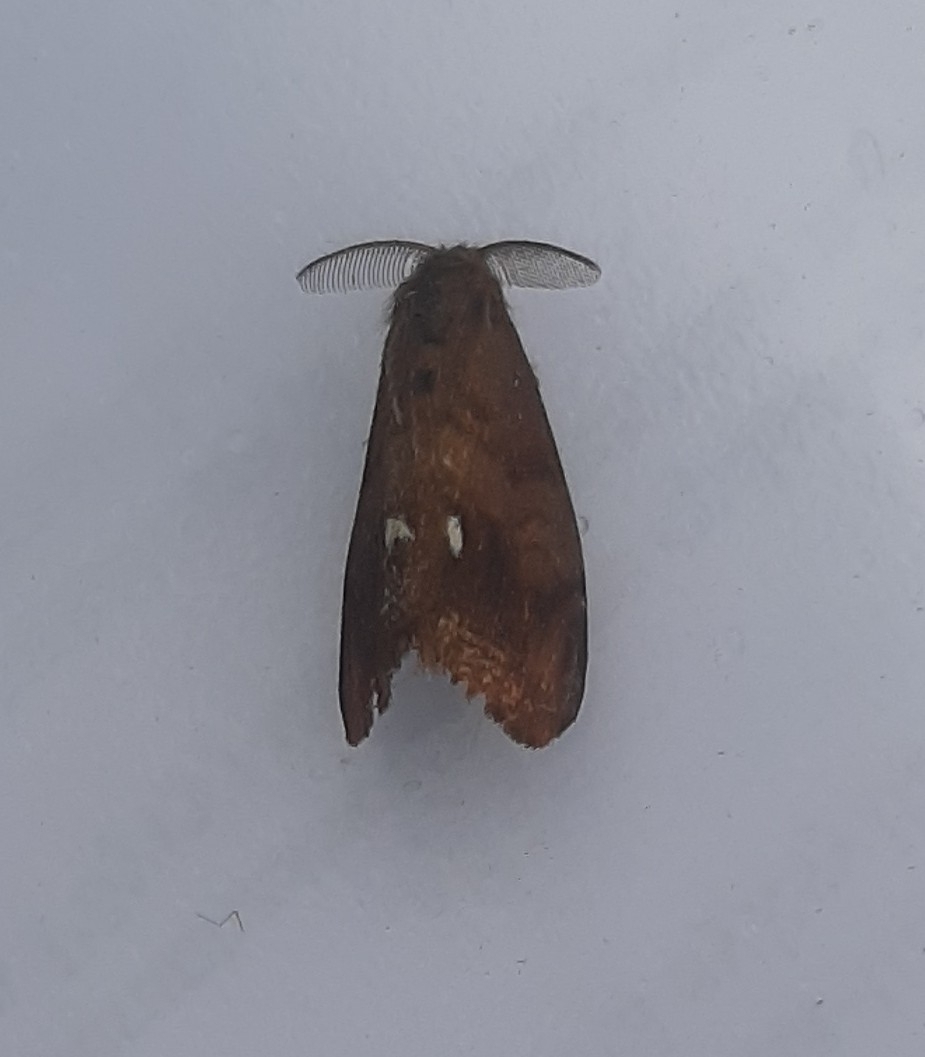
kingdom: Animalia
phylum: Arthropoda
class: Insecta
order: Lepidoptera
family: Erebidae
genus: Orgyia
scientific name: Orgyia antiqua
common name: Vapourer
